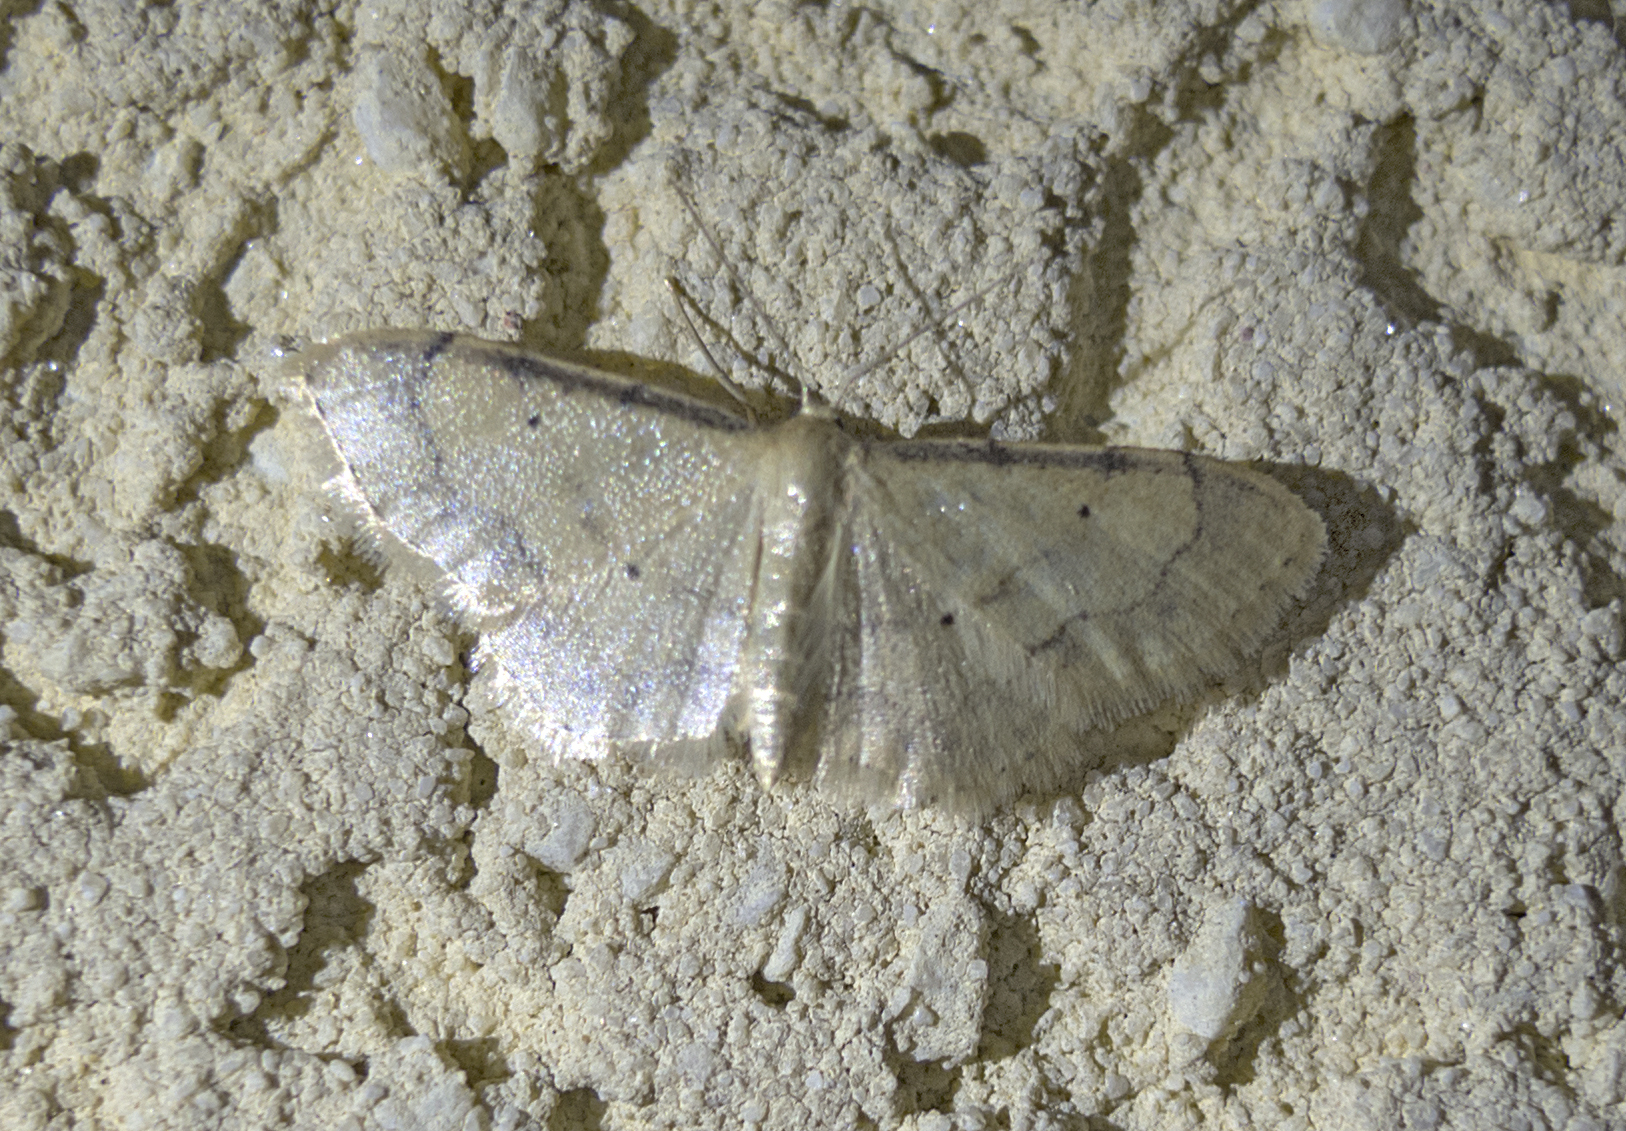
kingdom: Animalia
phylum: Arthropoda
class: Insecta
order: Lepidoptera
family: Geometridae
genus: Idaea
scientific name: Idaea politaria
